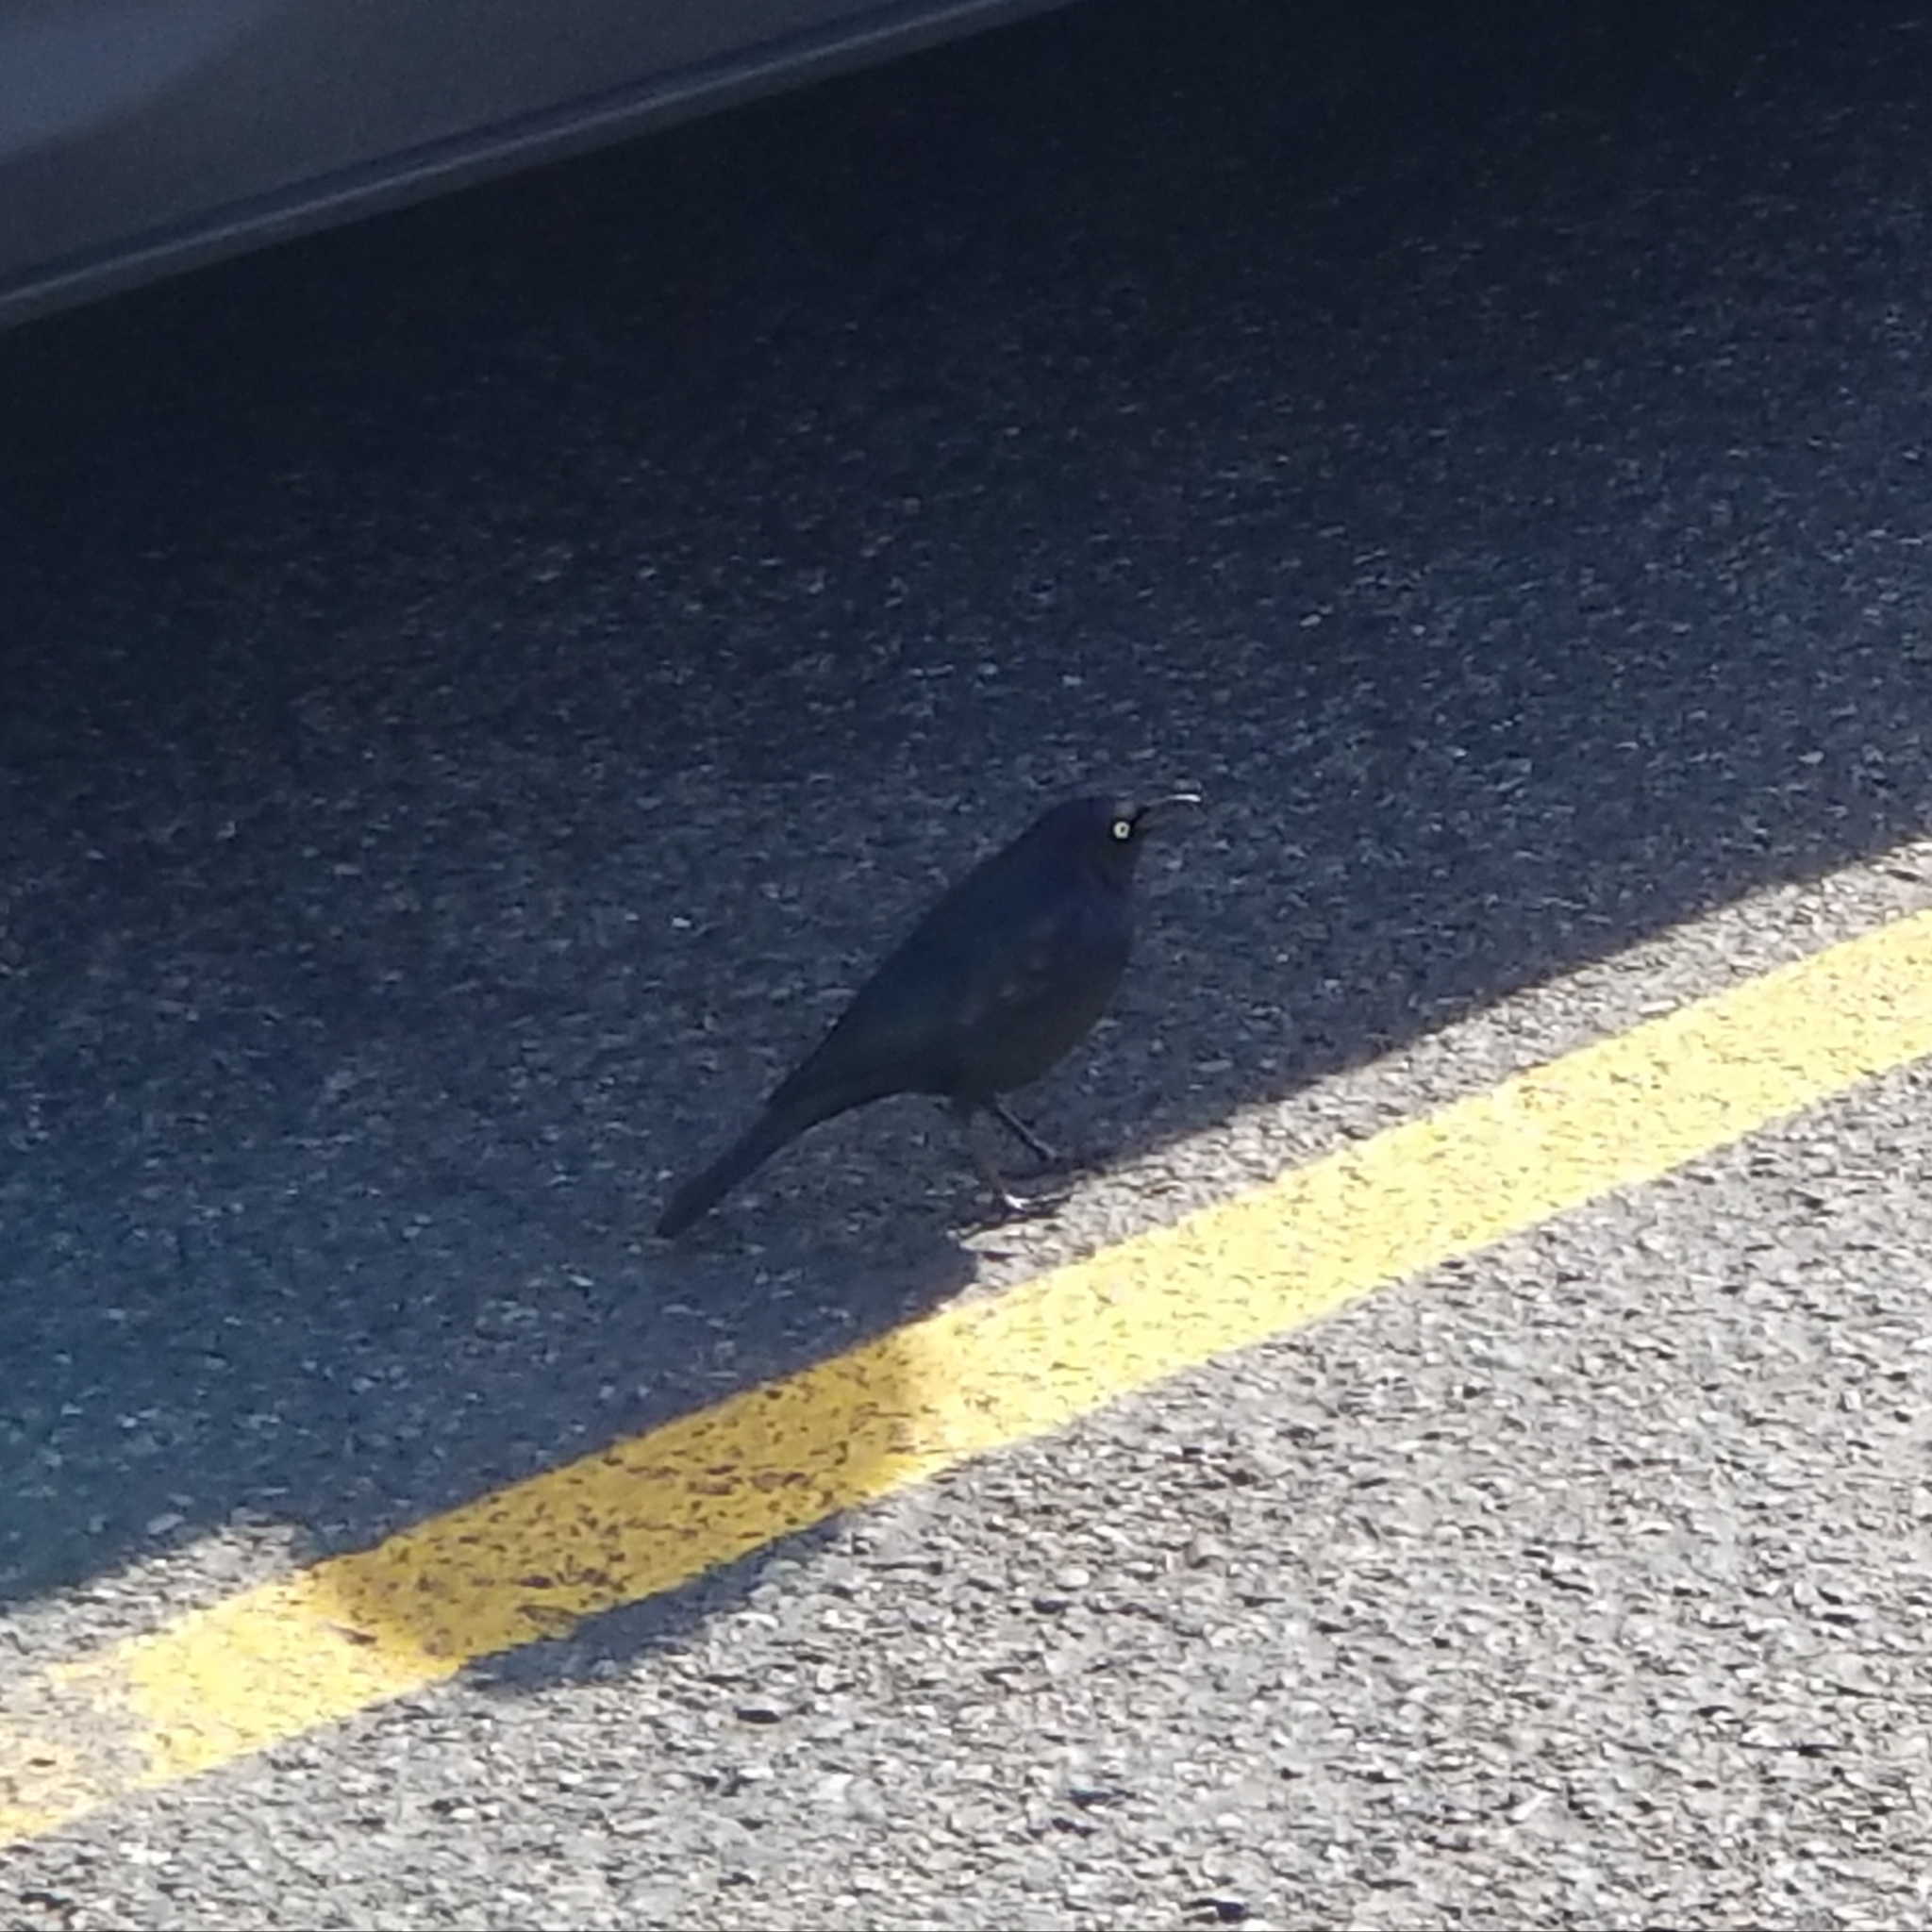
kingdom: Animalia
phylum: Chordata
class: Aves
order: Passeriformes
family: Icteridae
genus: Euphagus
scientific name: Euphagus cyanocephalus
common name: Brewer's blackbird
